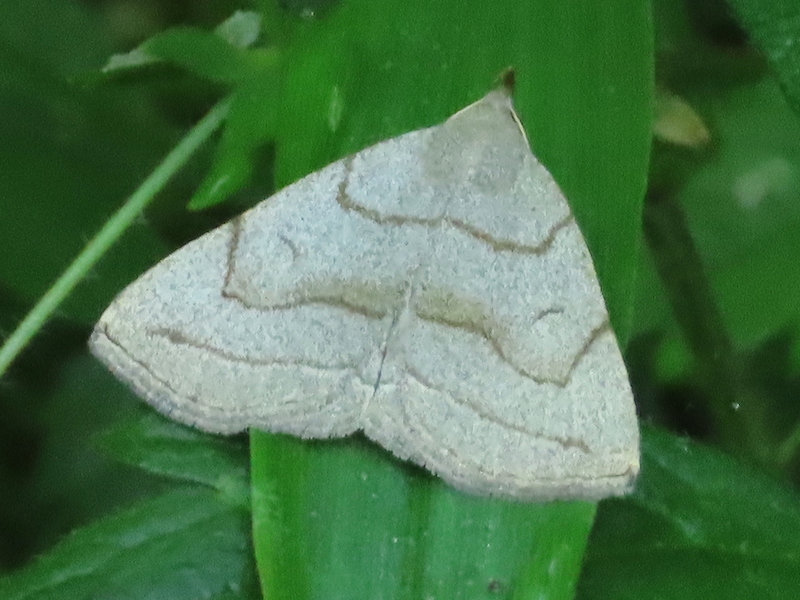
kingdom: Animalia
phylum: Arthropoda
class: Insecta
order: Lepidoptera
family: Erebidae
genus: Zanclognatha
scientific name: Zanclognatha pedipilalis
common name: Grayish fan-foot
